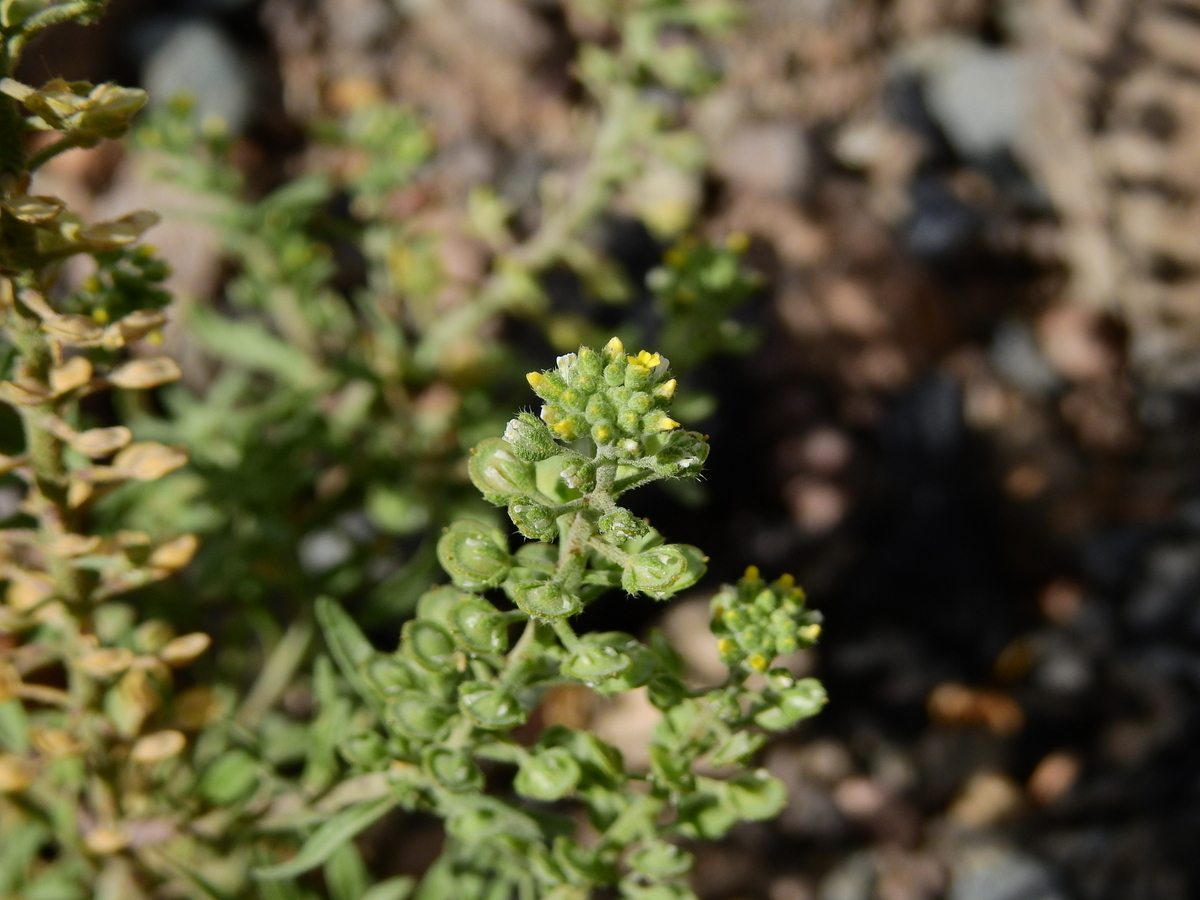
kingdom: Plantae
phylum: Tracheophyta
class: Magnoliopsida
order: Brassicales
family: Brassicaceae
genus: Alyssum
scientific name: Alyssum alyssoides
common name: Small alison
